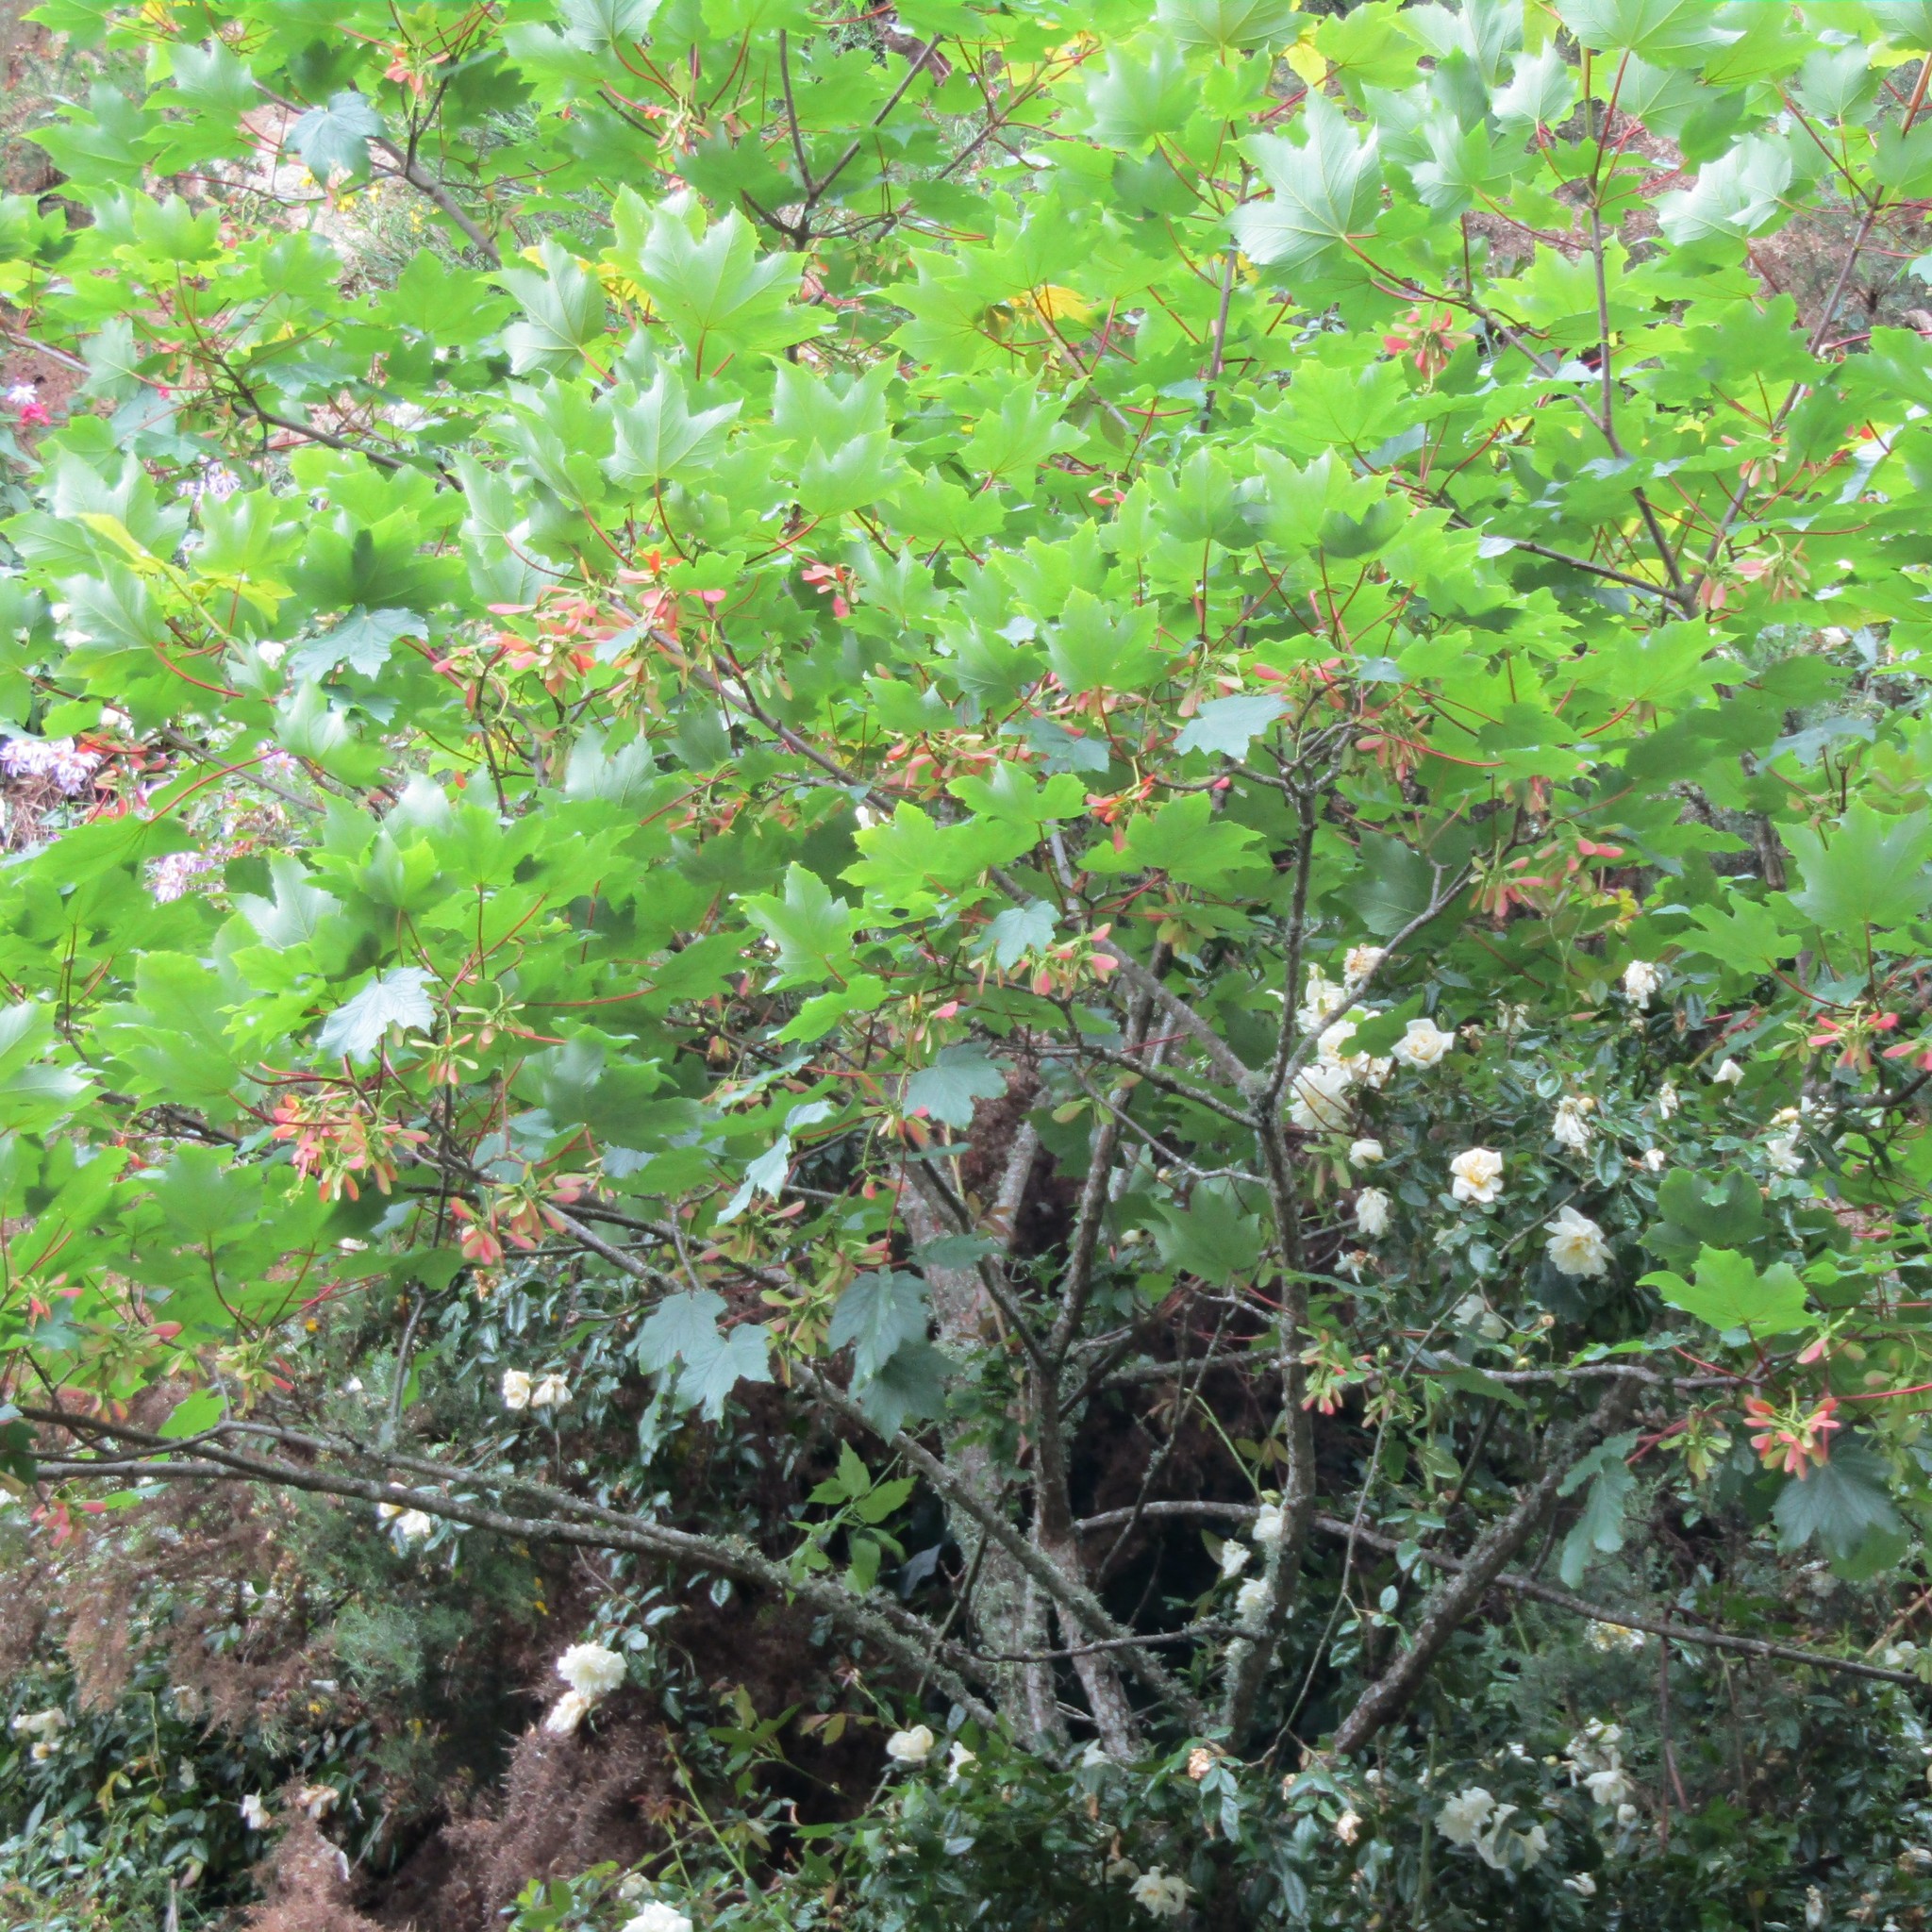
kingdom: Plantae
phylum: Tracheophyta
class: Magnoliopsida
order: Sapindales
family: Sapindaceae
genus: Acer
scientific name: Acer pseudoplatanus
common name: Sycamore
